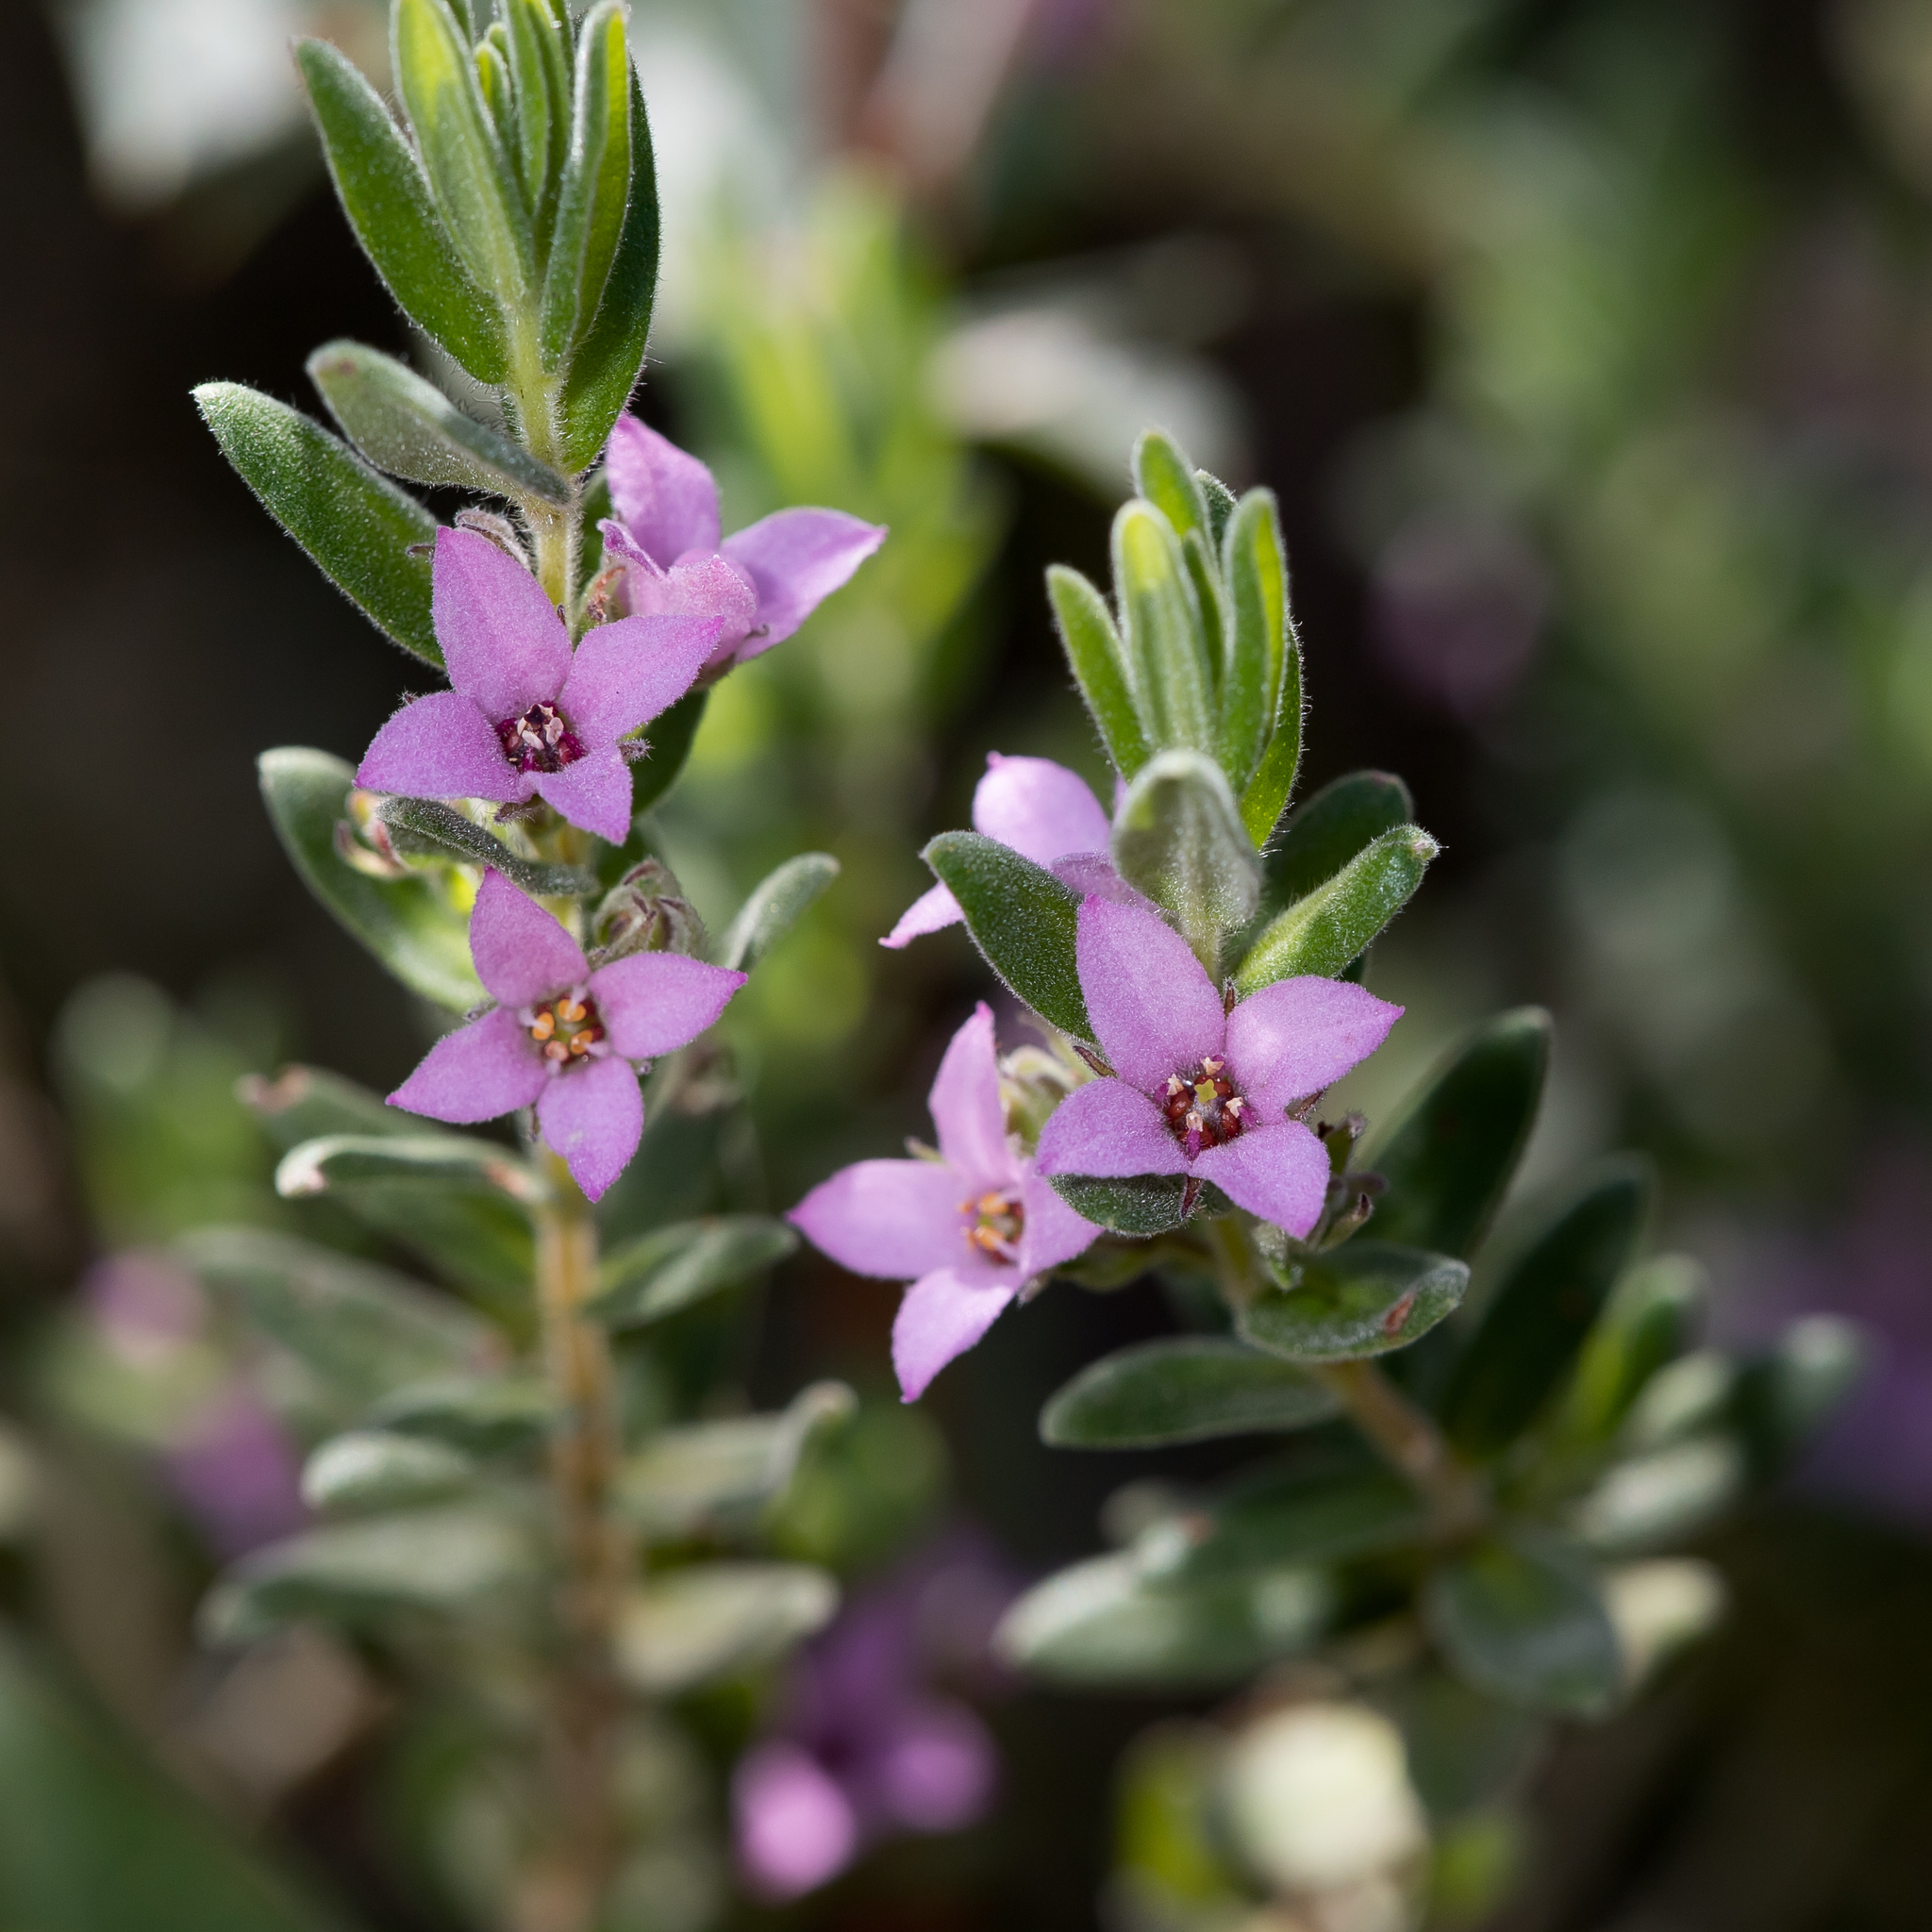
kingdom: Plantae
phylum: Tracheophyta
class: Magnoliopsida
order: Sapindales
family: Rutaceae
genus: Zieria
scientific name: Zieria veronicea
